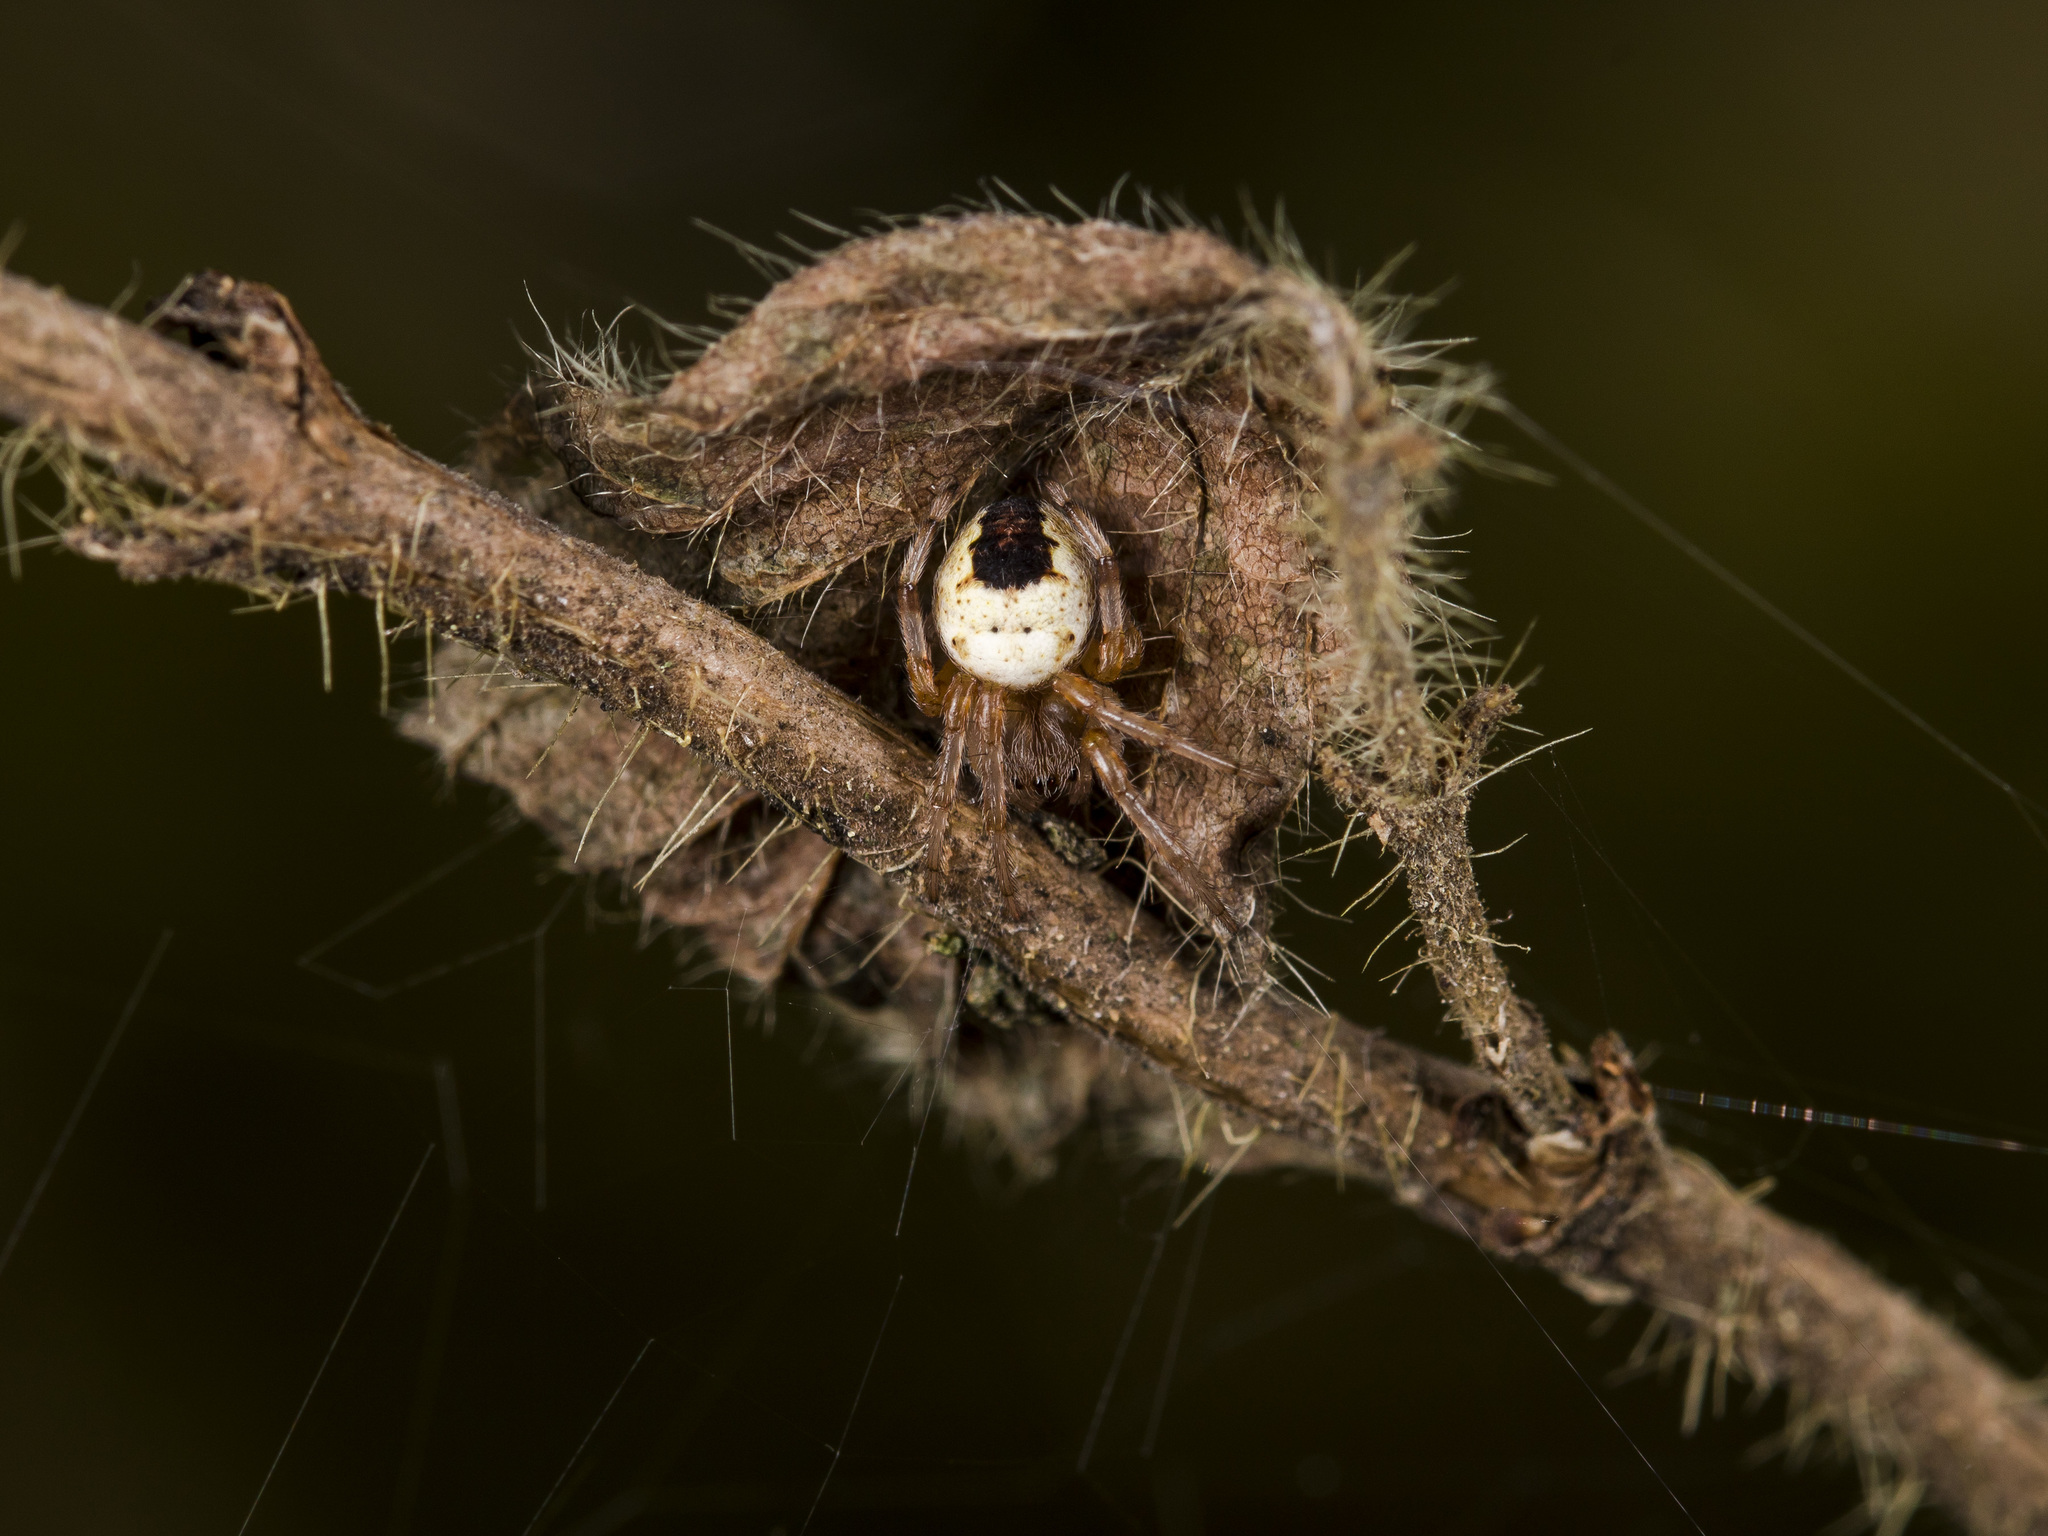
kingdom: Animalia
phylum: Arthropoda
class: Arachnida
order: Araneae
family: Araneidae
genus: Araneus
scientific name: Araneus marmoreus
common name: Marbled orbweaver
